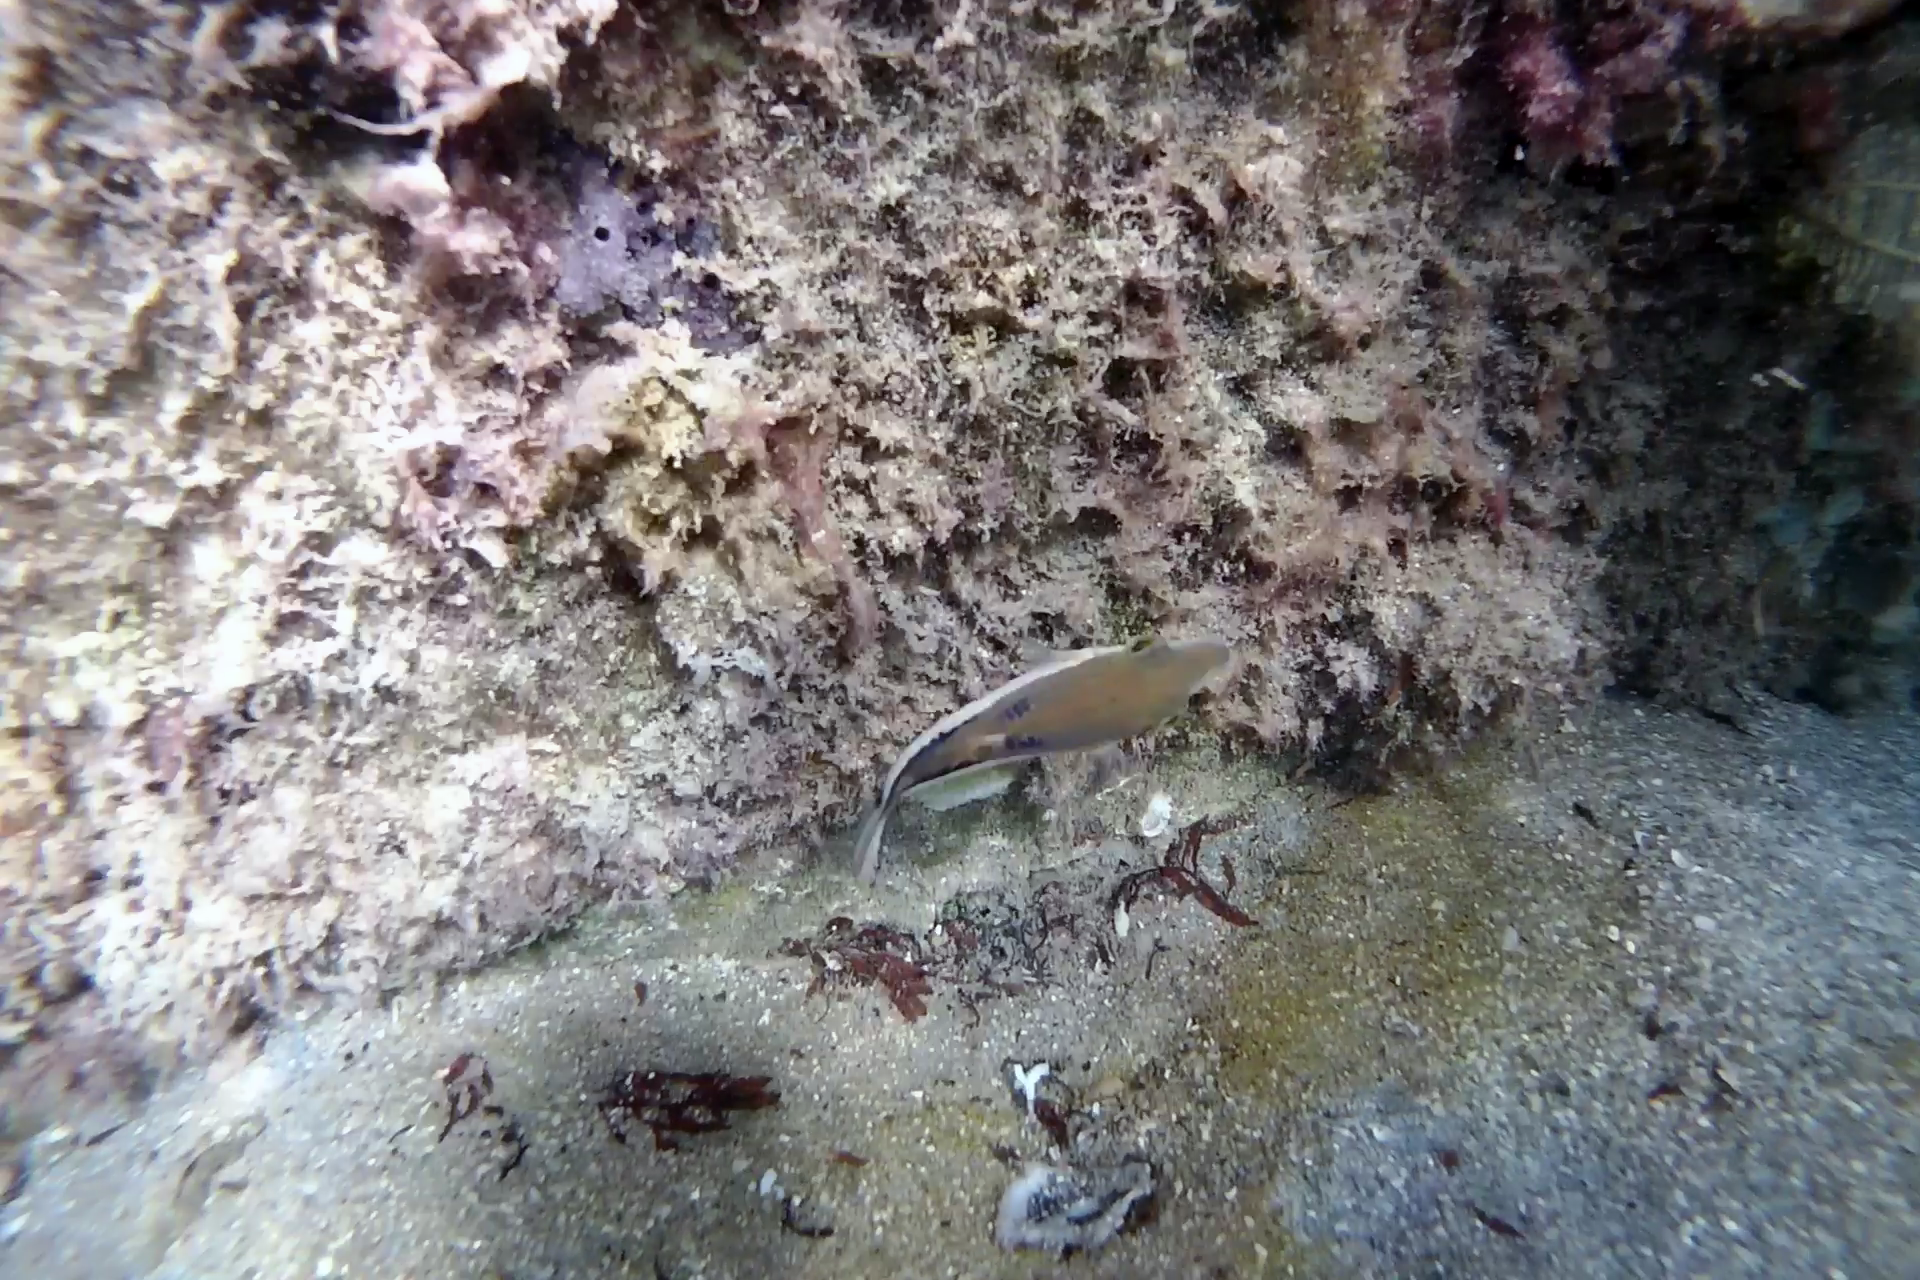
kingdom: Animalia
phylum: Chordata
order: Tetraodontiformes
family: Tetraodontidae
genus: Canthigaster
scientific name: Canthigaster rostrata
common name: Caribbean sharpnose-puffer
